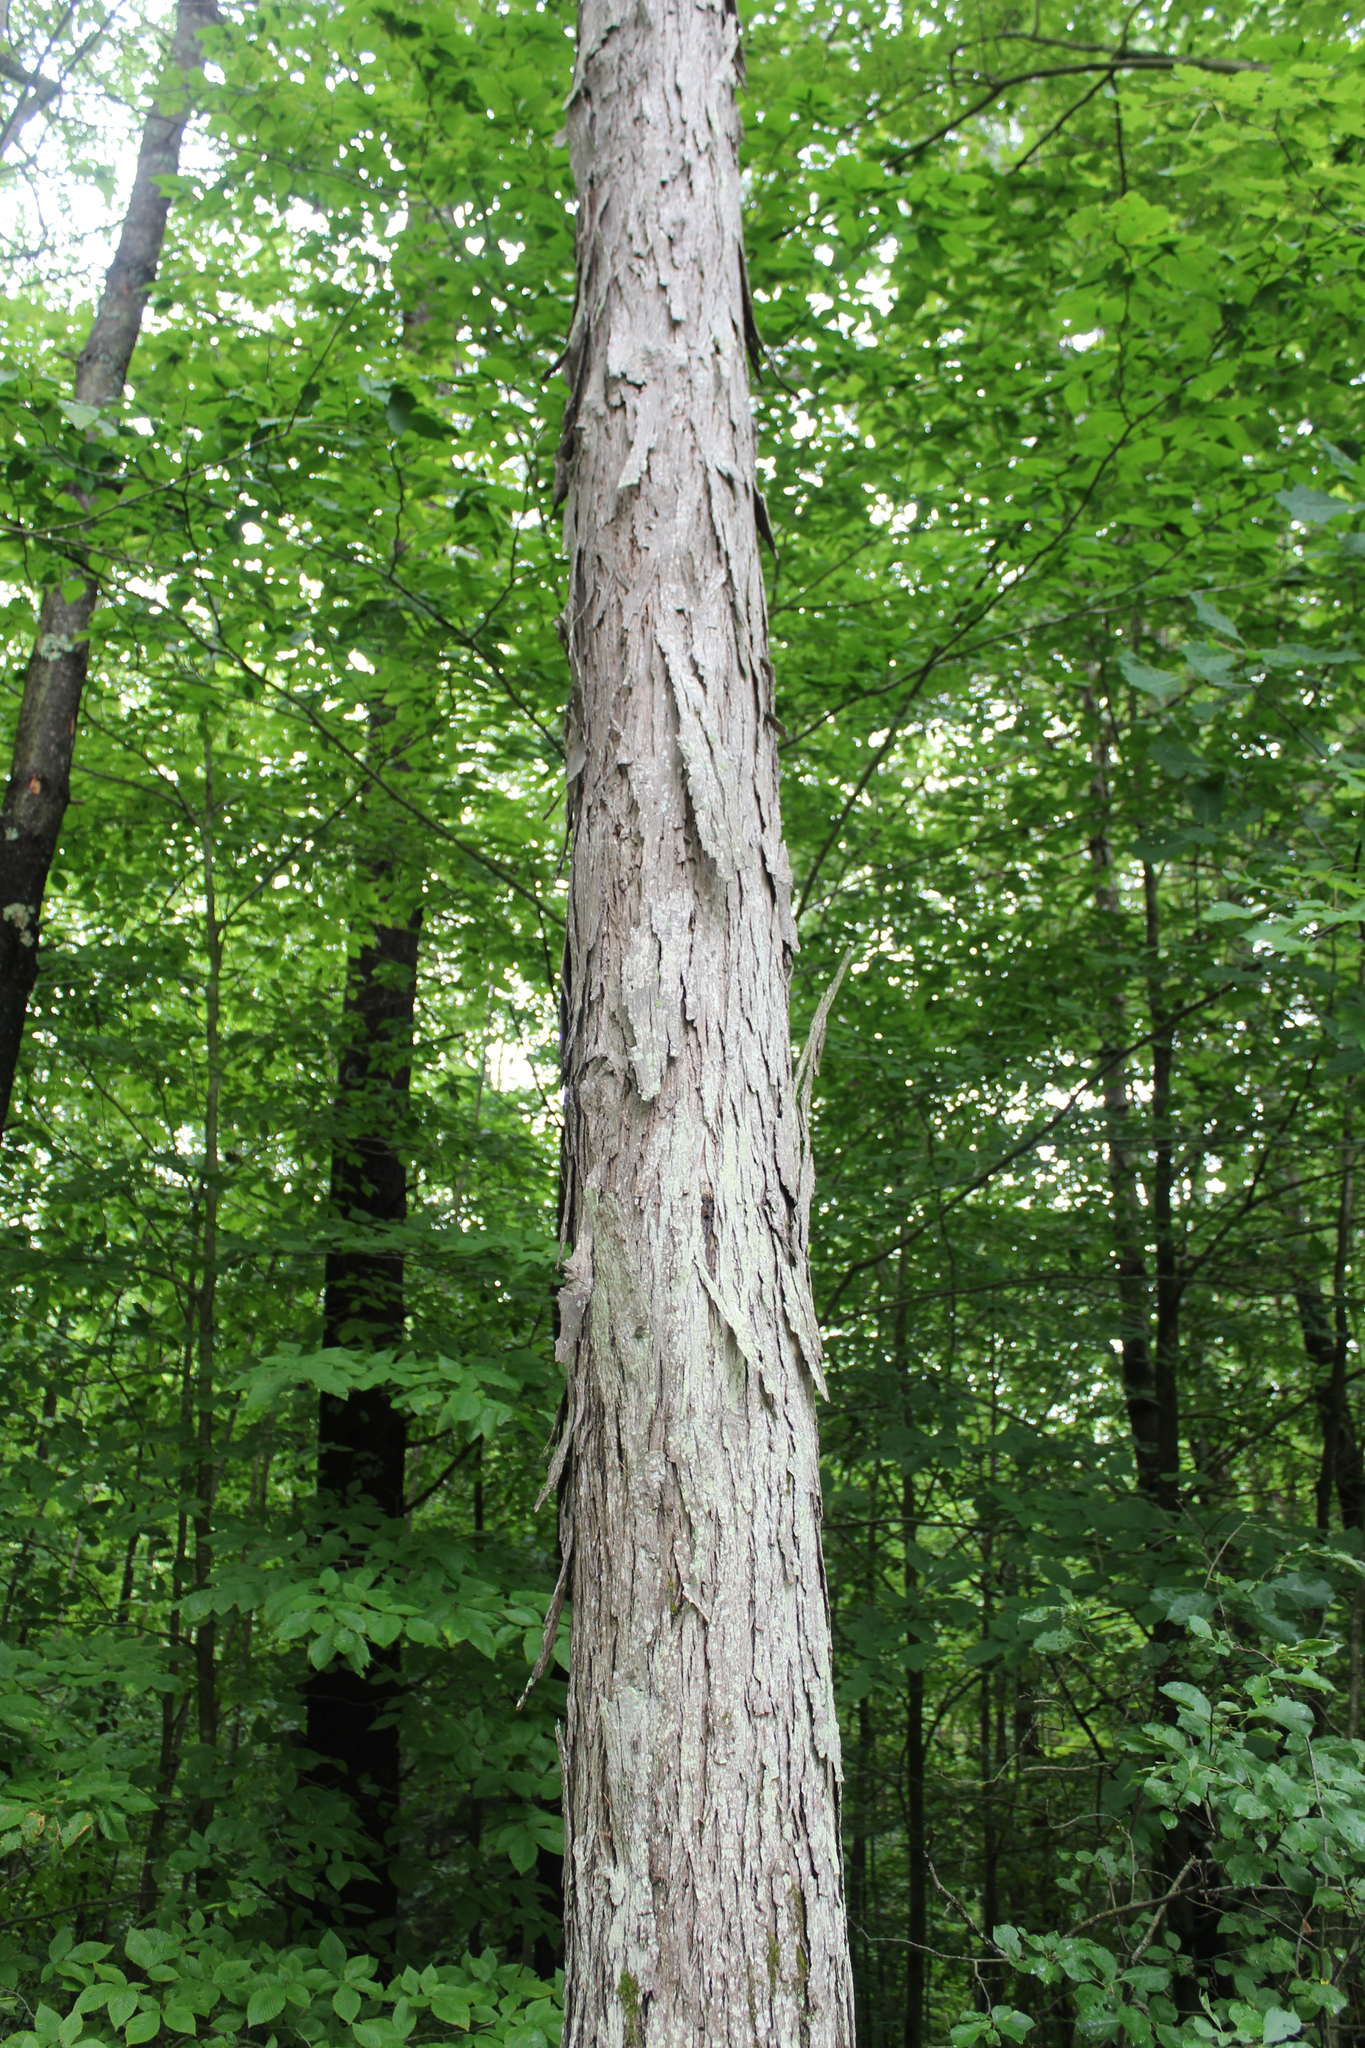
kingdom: Plantae
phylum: Tracheophyta
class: Magnoliopsida
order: Fagales
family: Juglandaceae
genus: Carya
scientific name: Carya ovata
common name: Shagbark hickory
